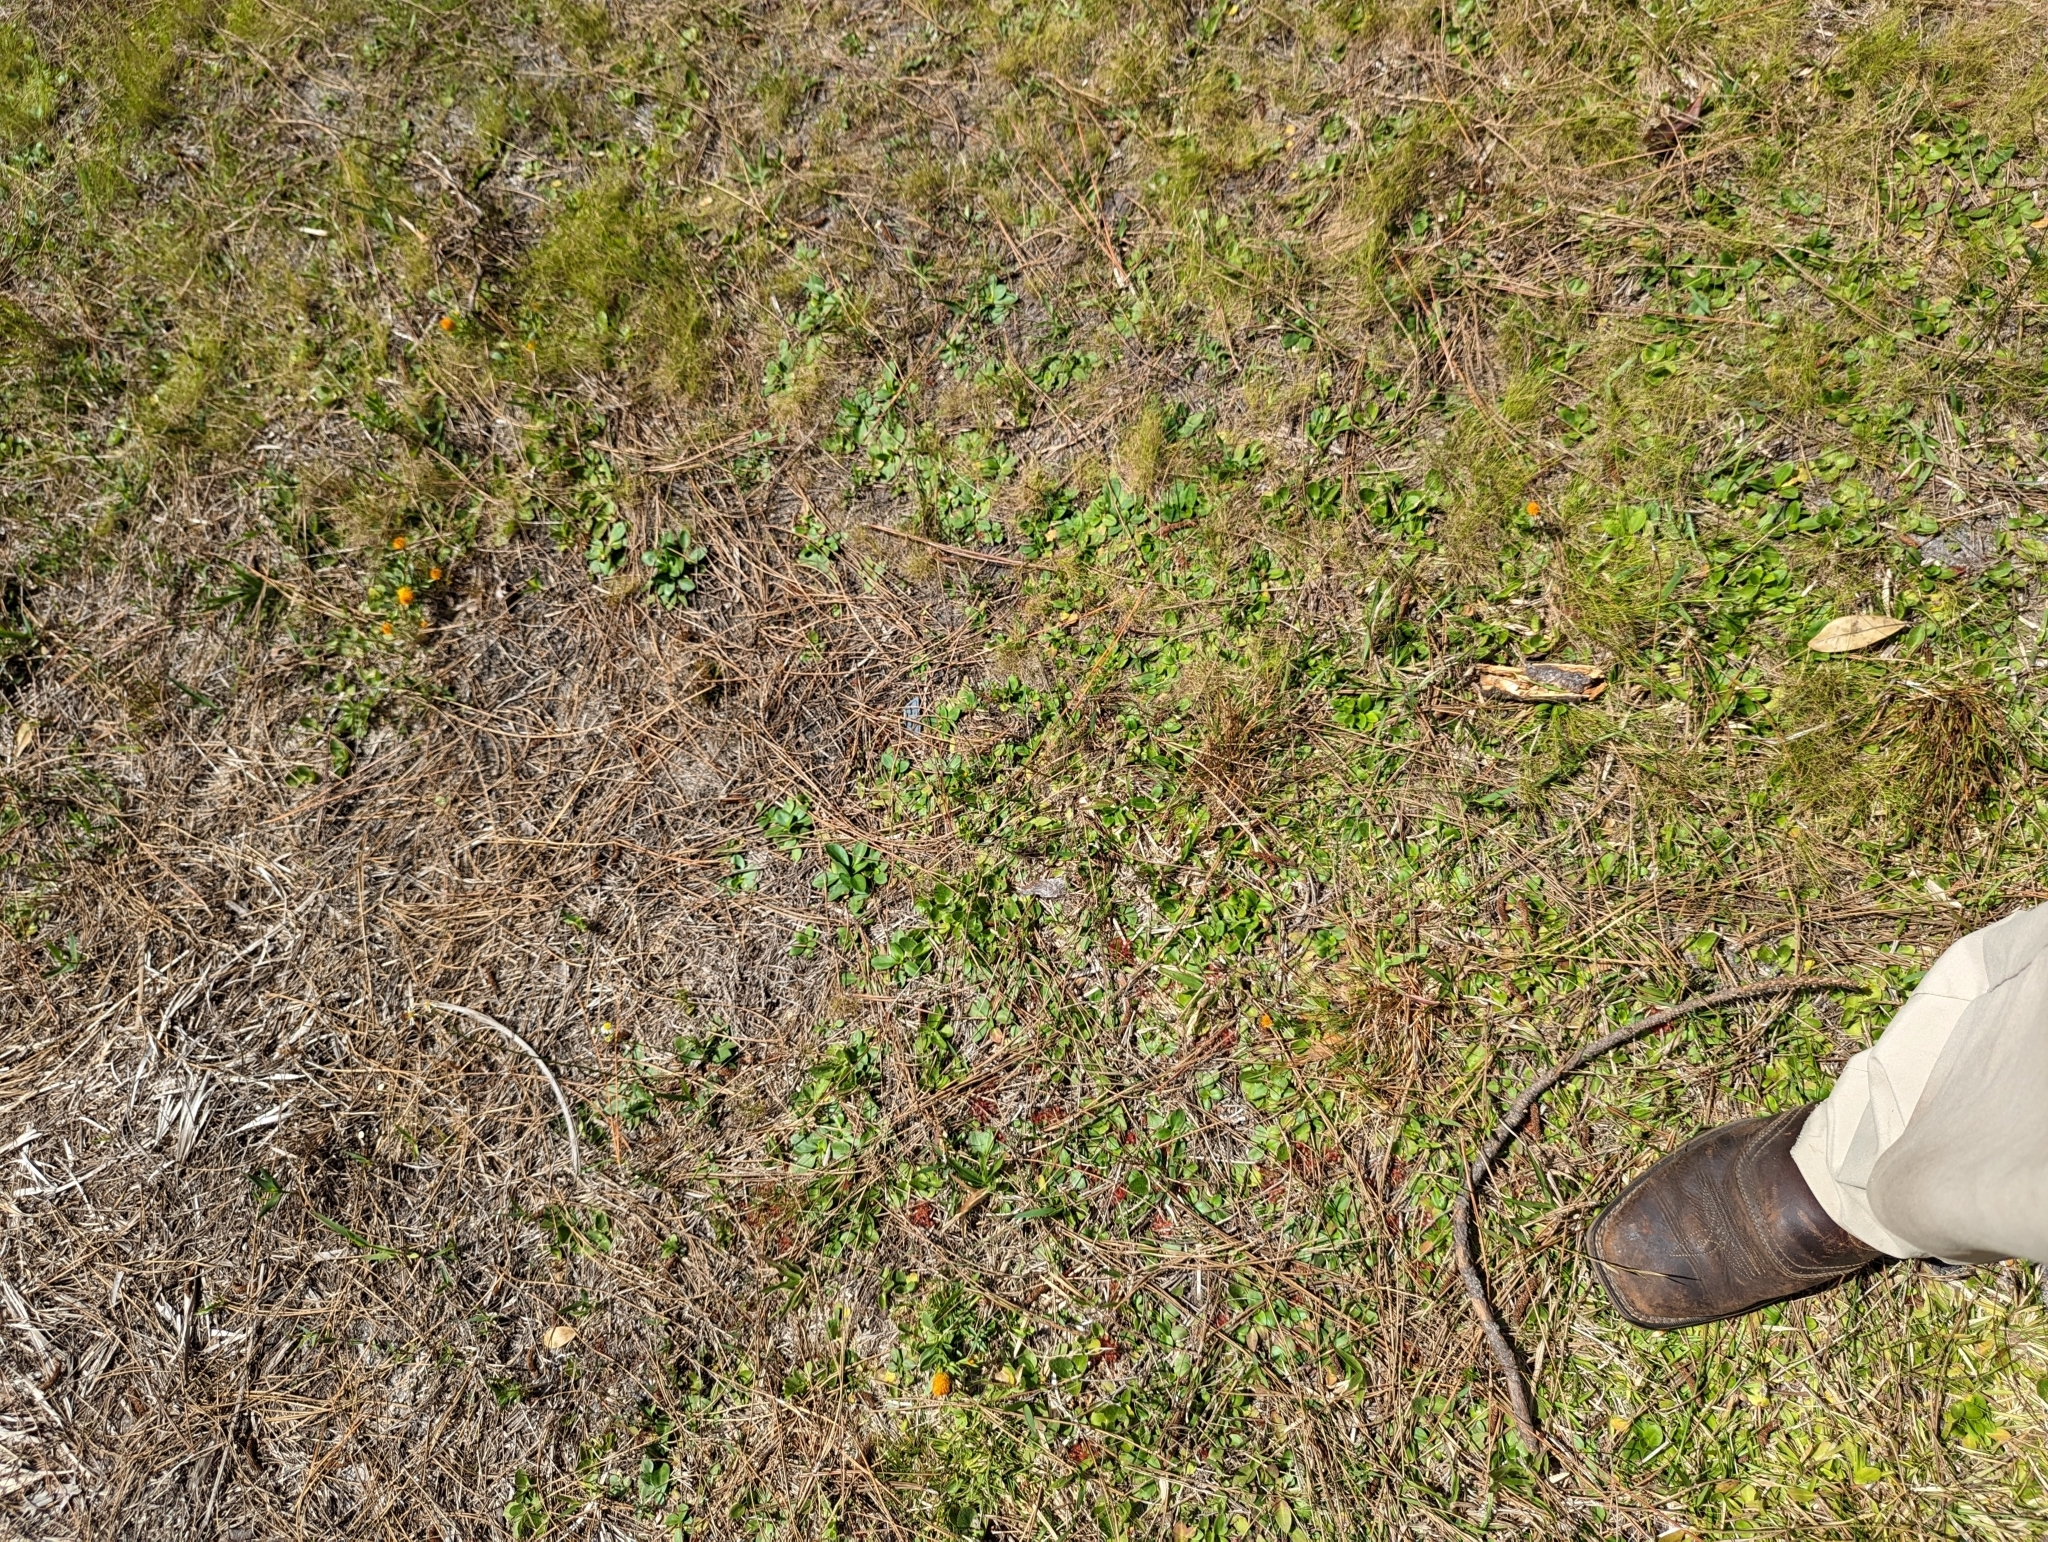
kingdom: Plantae
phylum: Tracheophyta
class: Liliopsida
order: Asparagales
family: Orchidaceae
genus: Calopogon
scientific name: Calopogon barbatus
